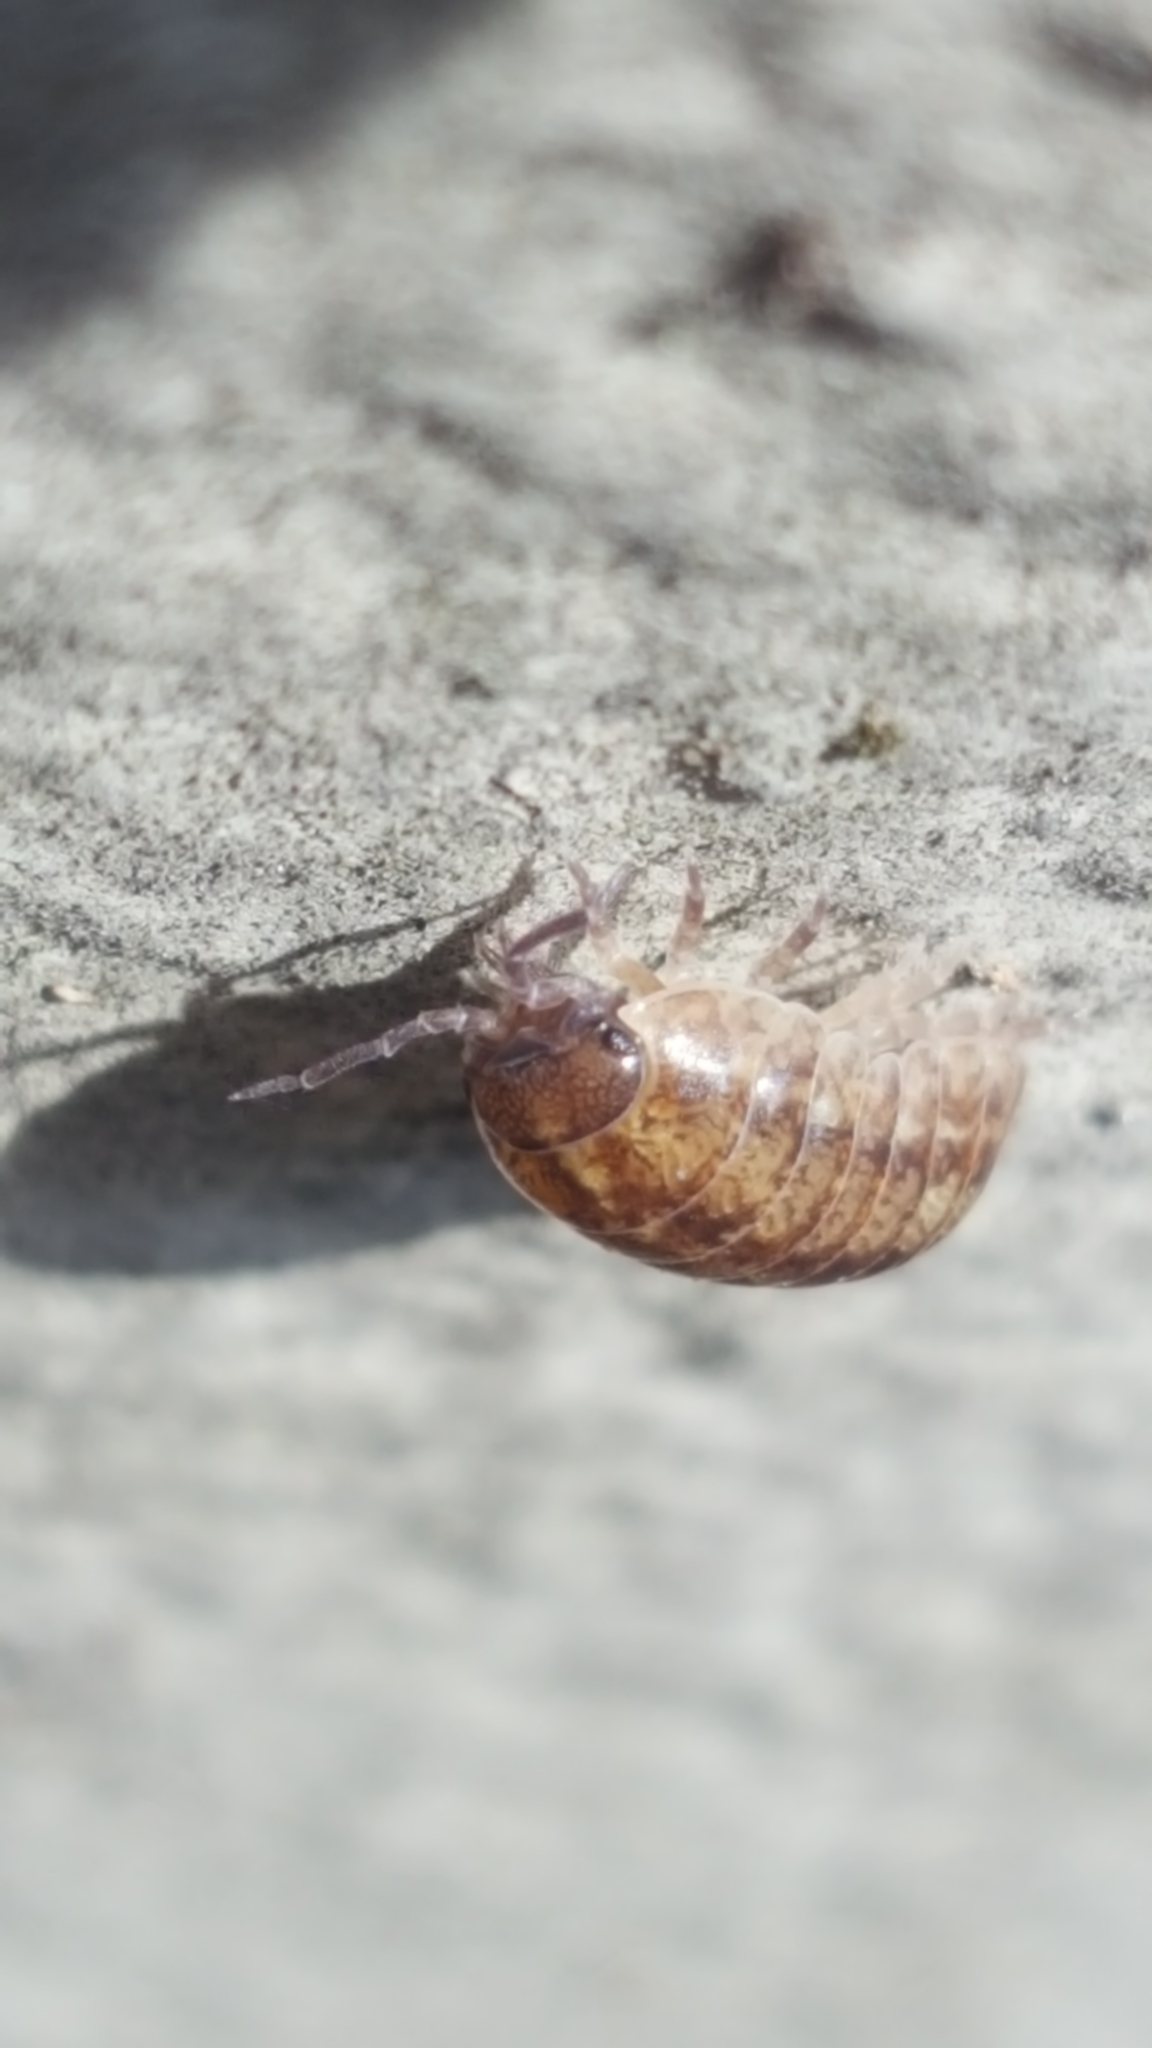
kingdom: Animalia
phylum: Arthropoda
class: Malacostraca
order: Isopoda
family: Armadillidiidae
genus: Armadillidium
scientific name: Armadillidium vulgare
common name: Common pill woodlouse
